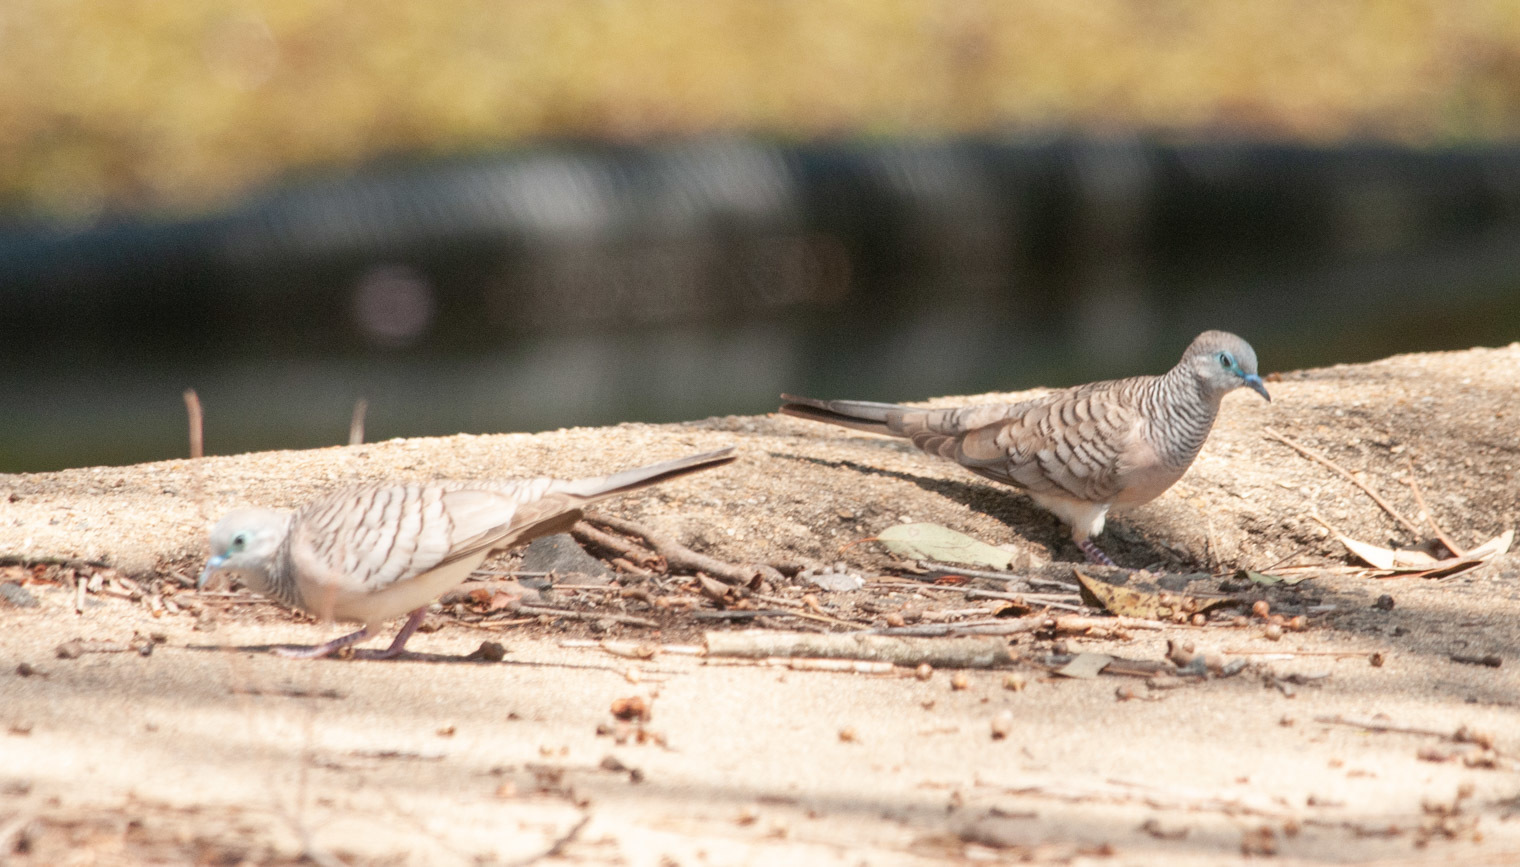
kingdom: Animalia
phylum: Chordata
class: Aves
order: Columbiformes
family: Columbidae
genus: Geopelia
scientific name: Geopelia placida
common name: Peaceful dove
